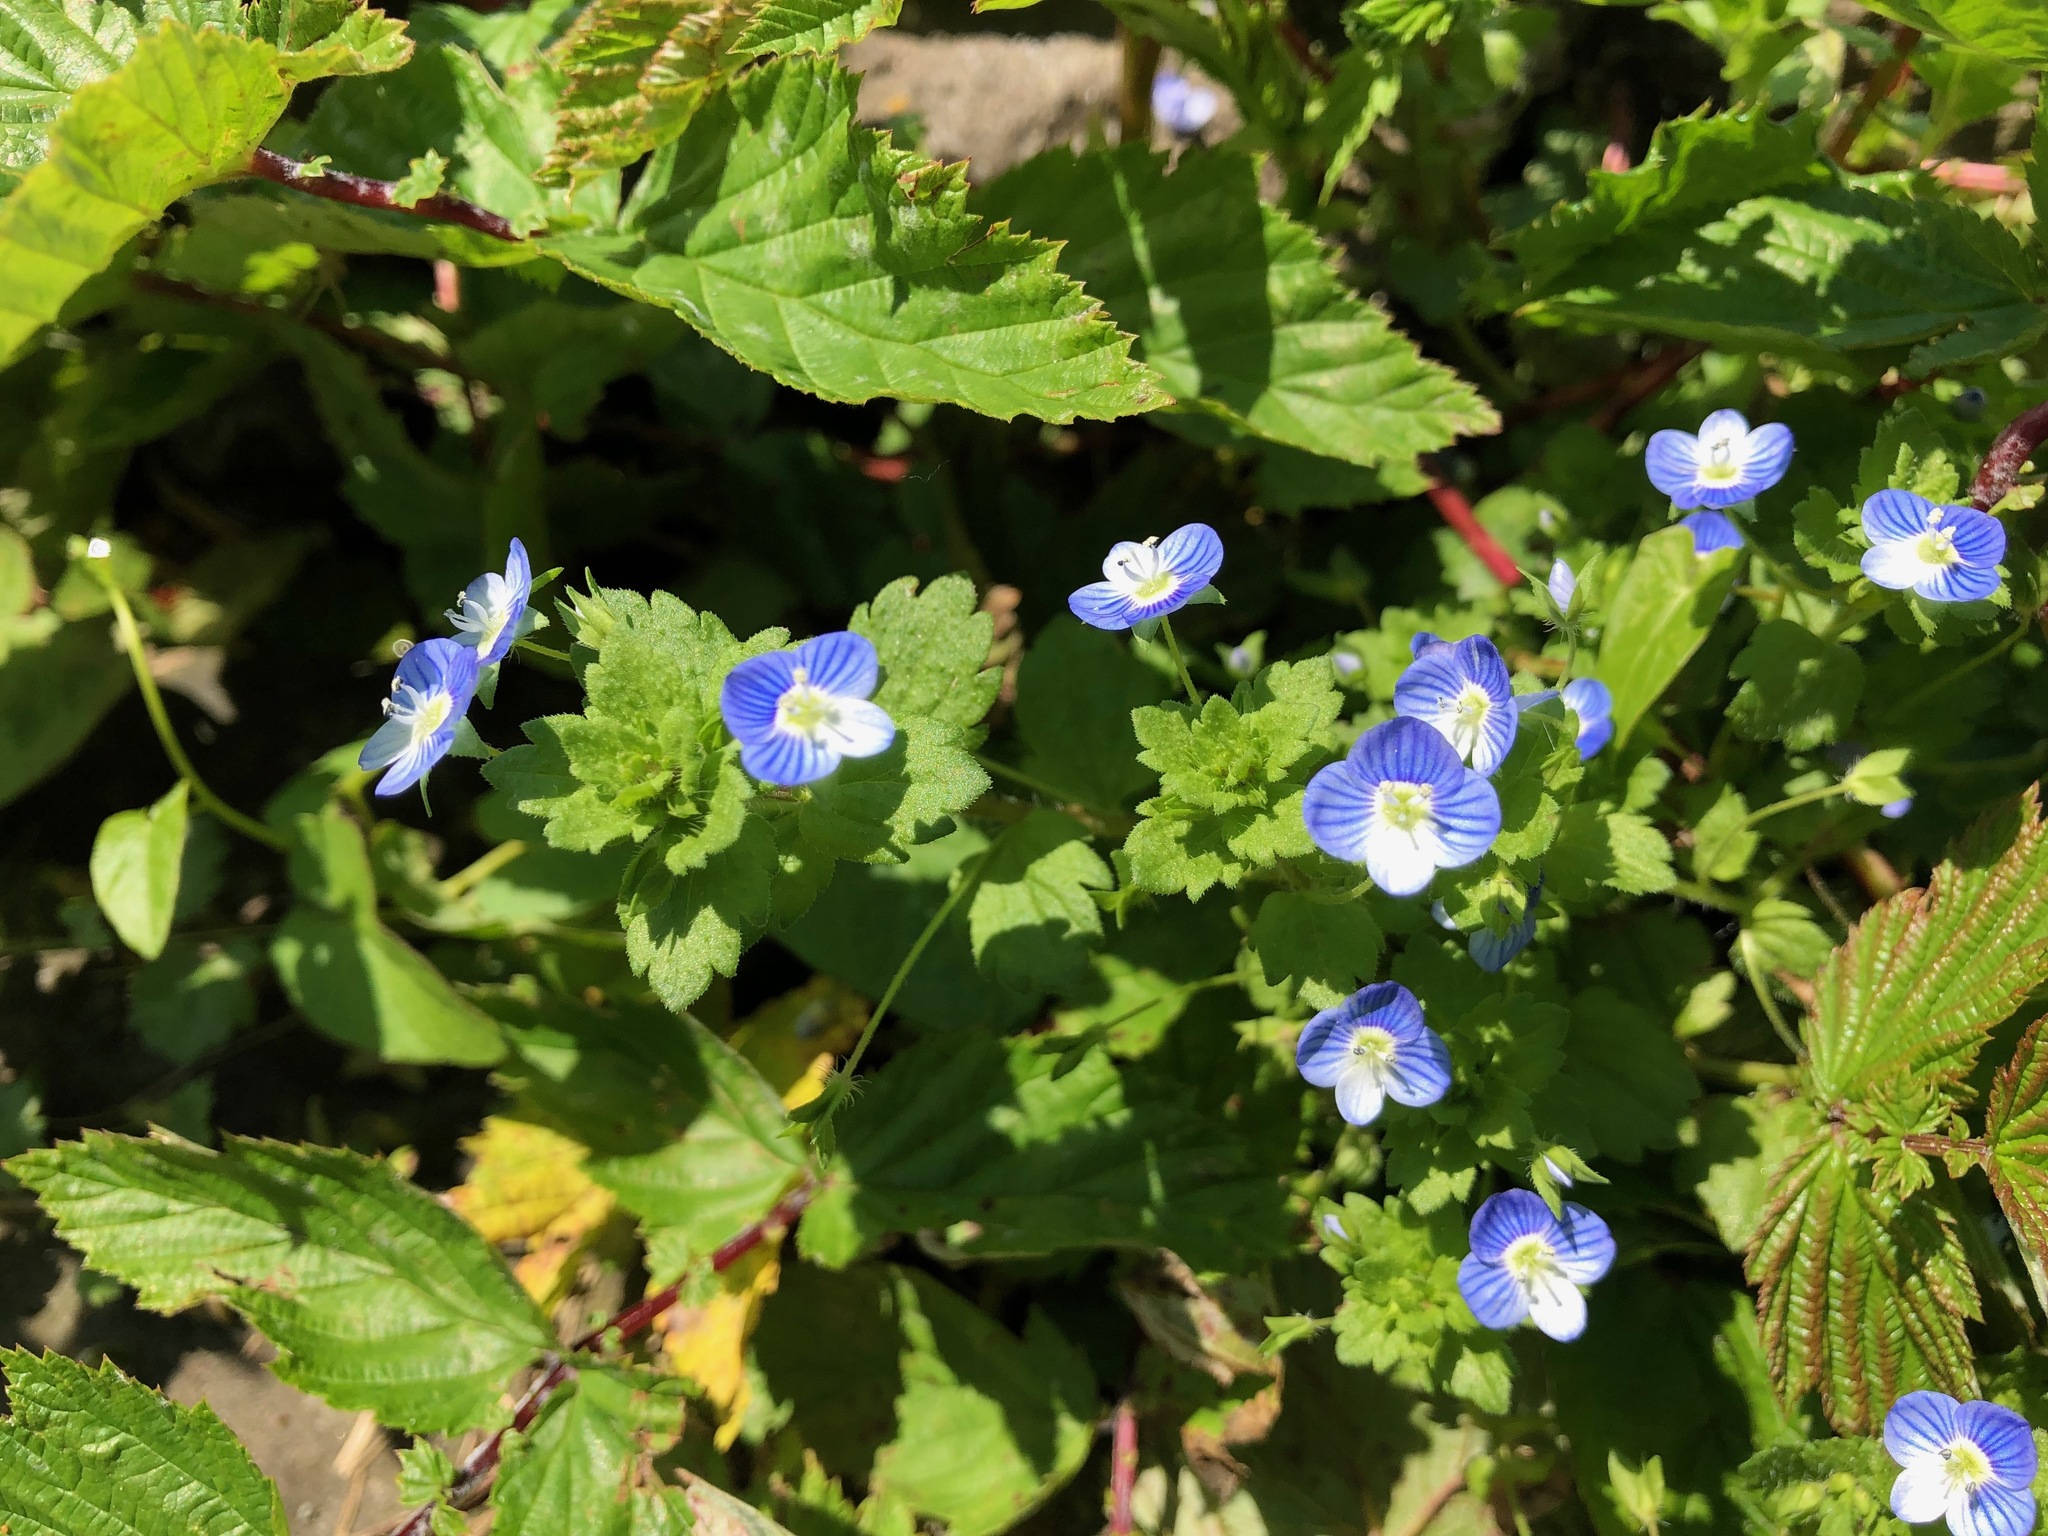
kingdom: Plantae
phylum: Tracheophyta
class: Magnoliopsida
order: Lamiales
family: Plantaginaceae
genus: Veronica
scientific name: Veronica persica
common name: Common field-speedwell
